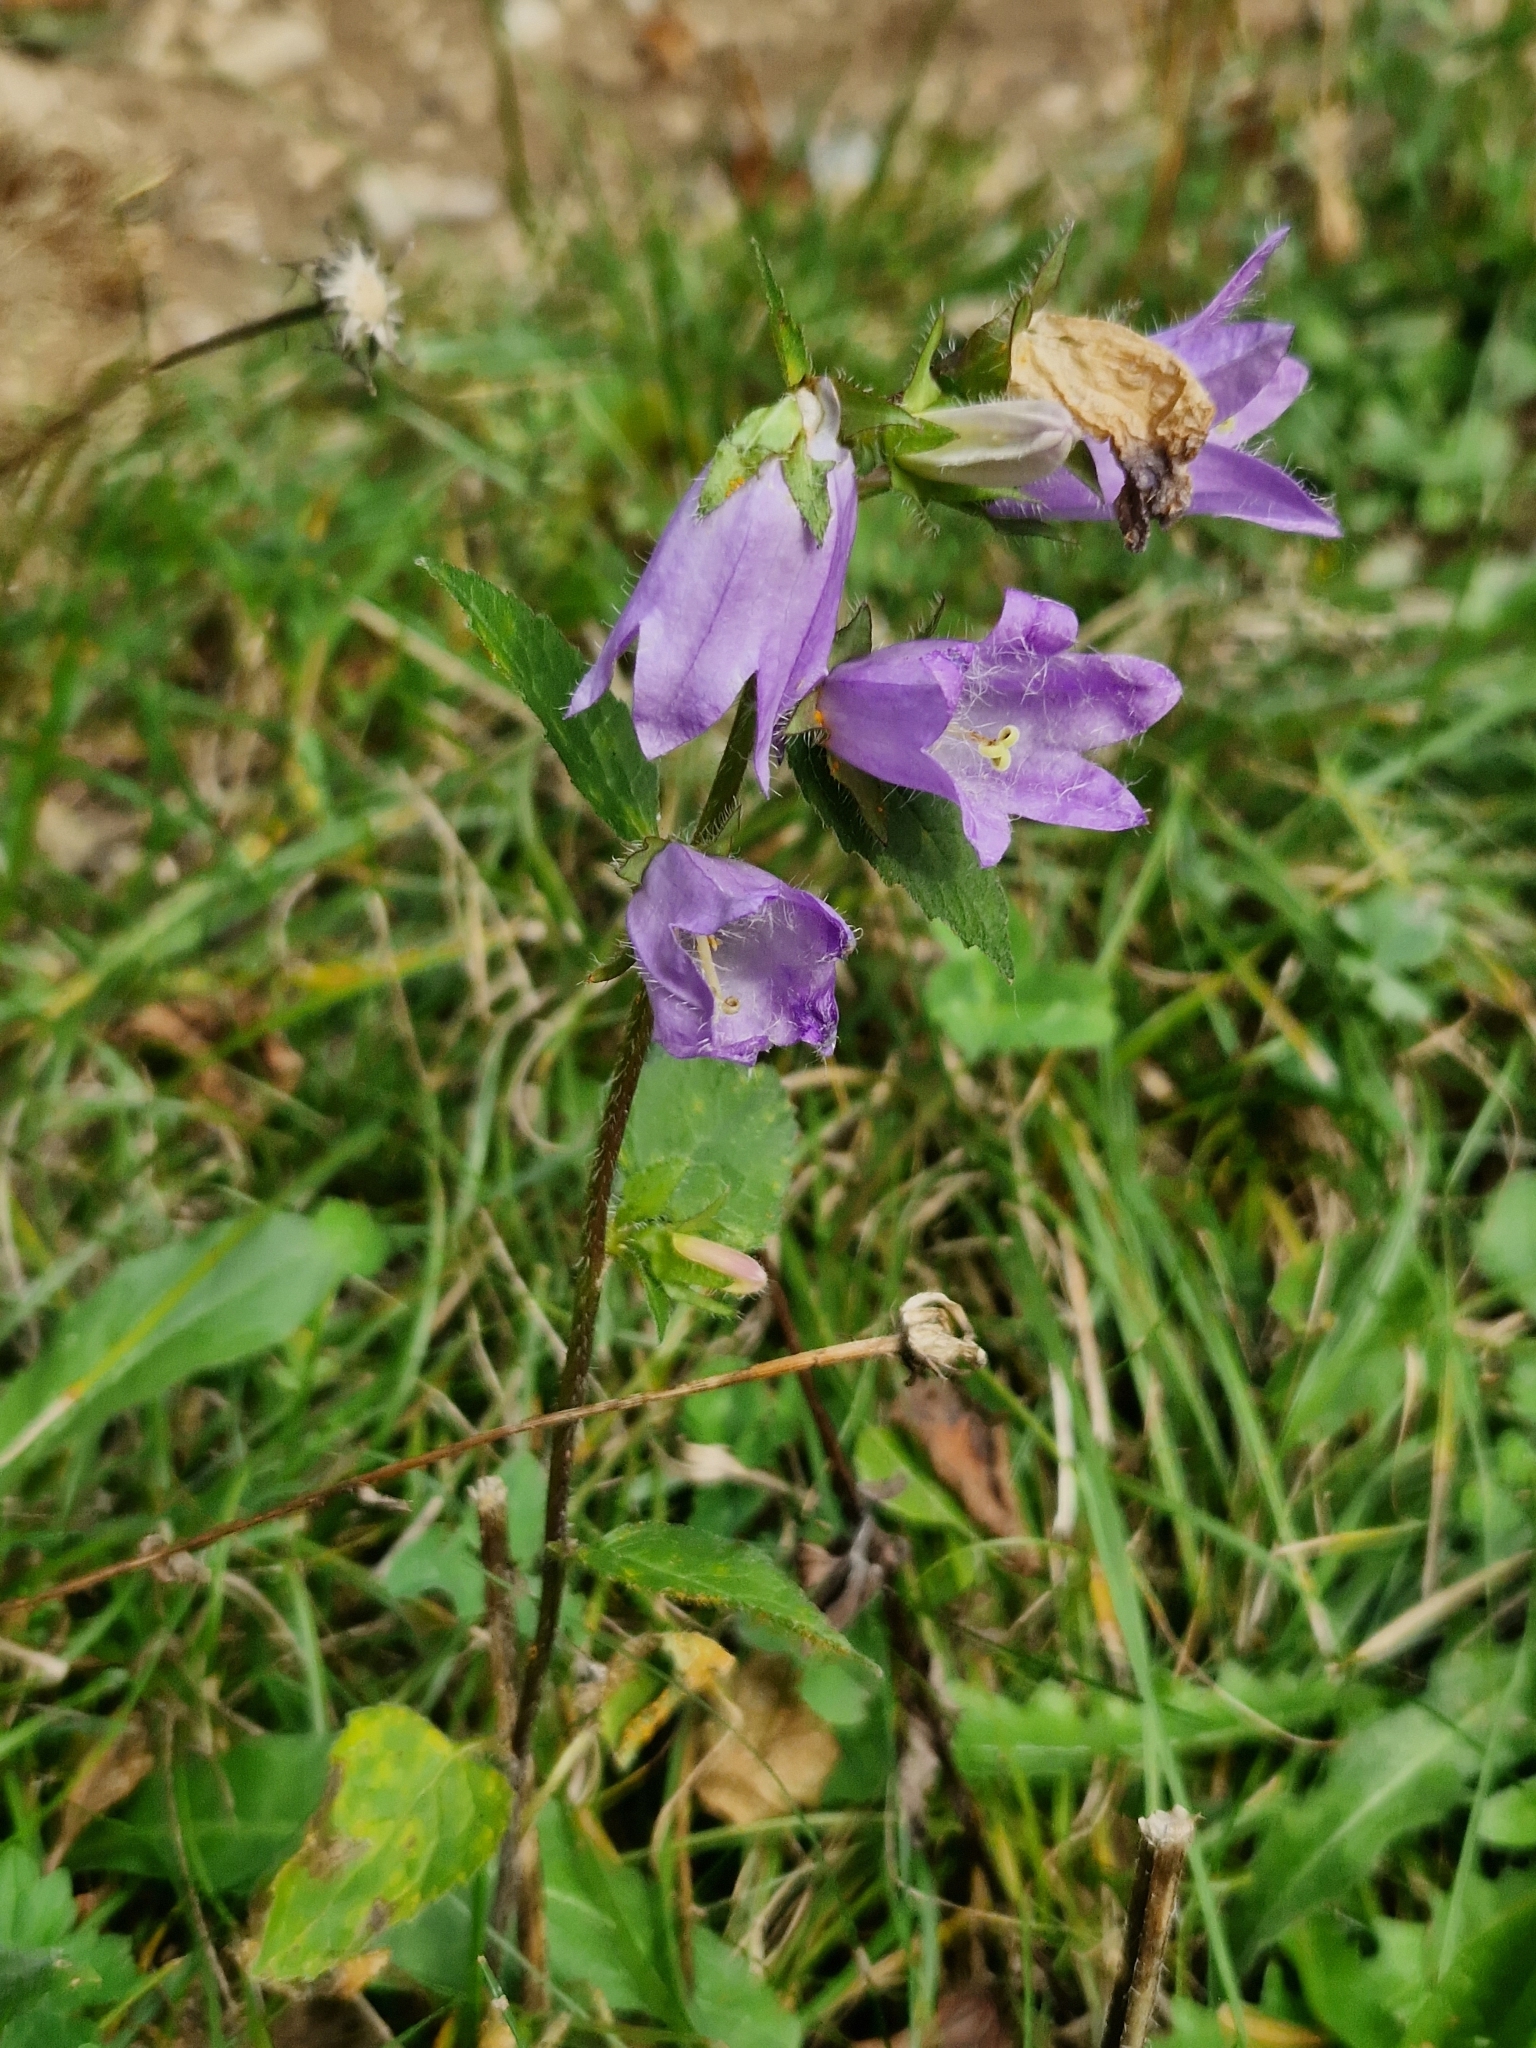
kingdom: Plantae
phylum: Tracheophyta
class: Magnoliopsida
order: Asterales
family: Campanulaceae
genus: Campanula
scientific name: Campanula trachelium
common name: Nettle-leaved bellflower
